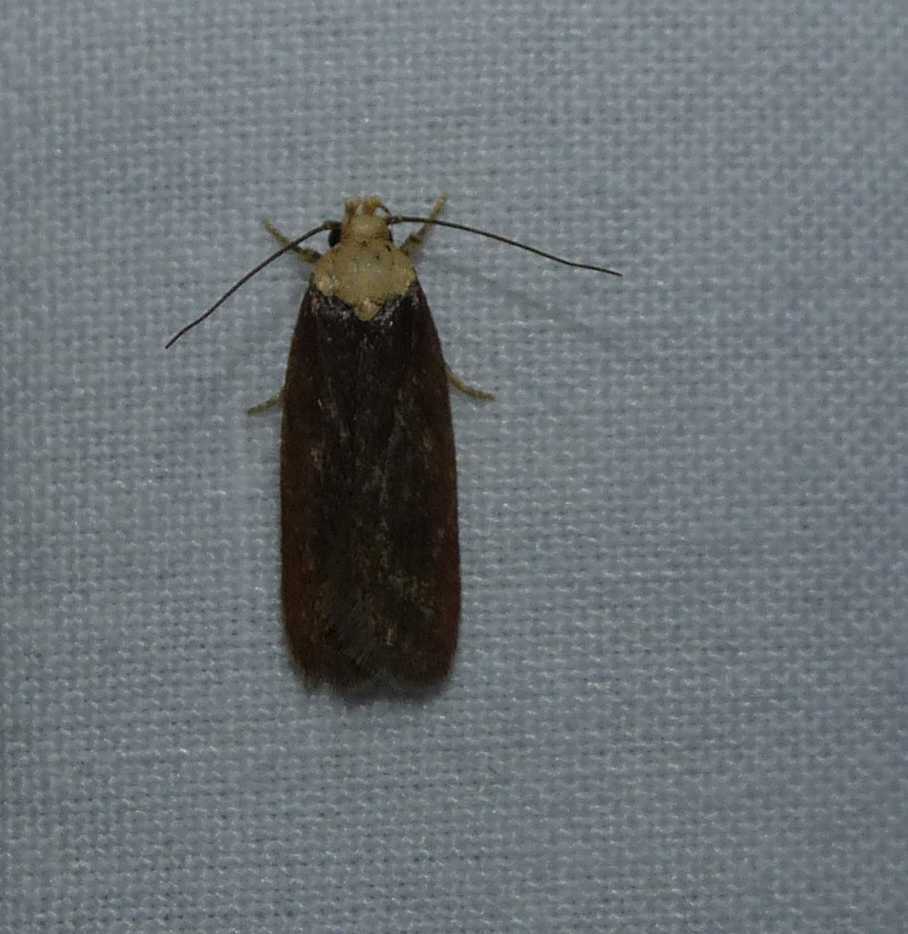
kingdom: Animalia
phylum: Arthropoda
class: Insecta
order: Lepidoptera
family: Depressariidae
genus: Depressaria
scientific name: Depressaria depressana
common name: Lost flat-body
